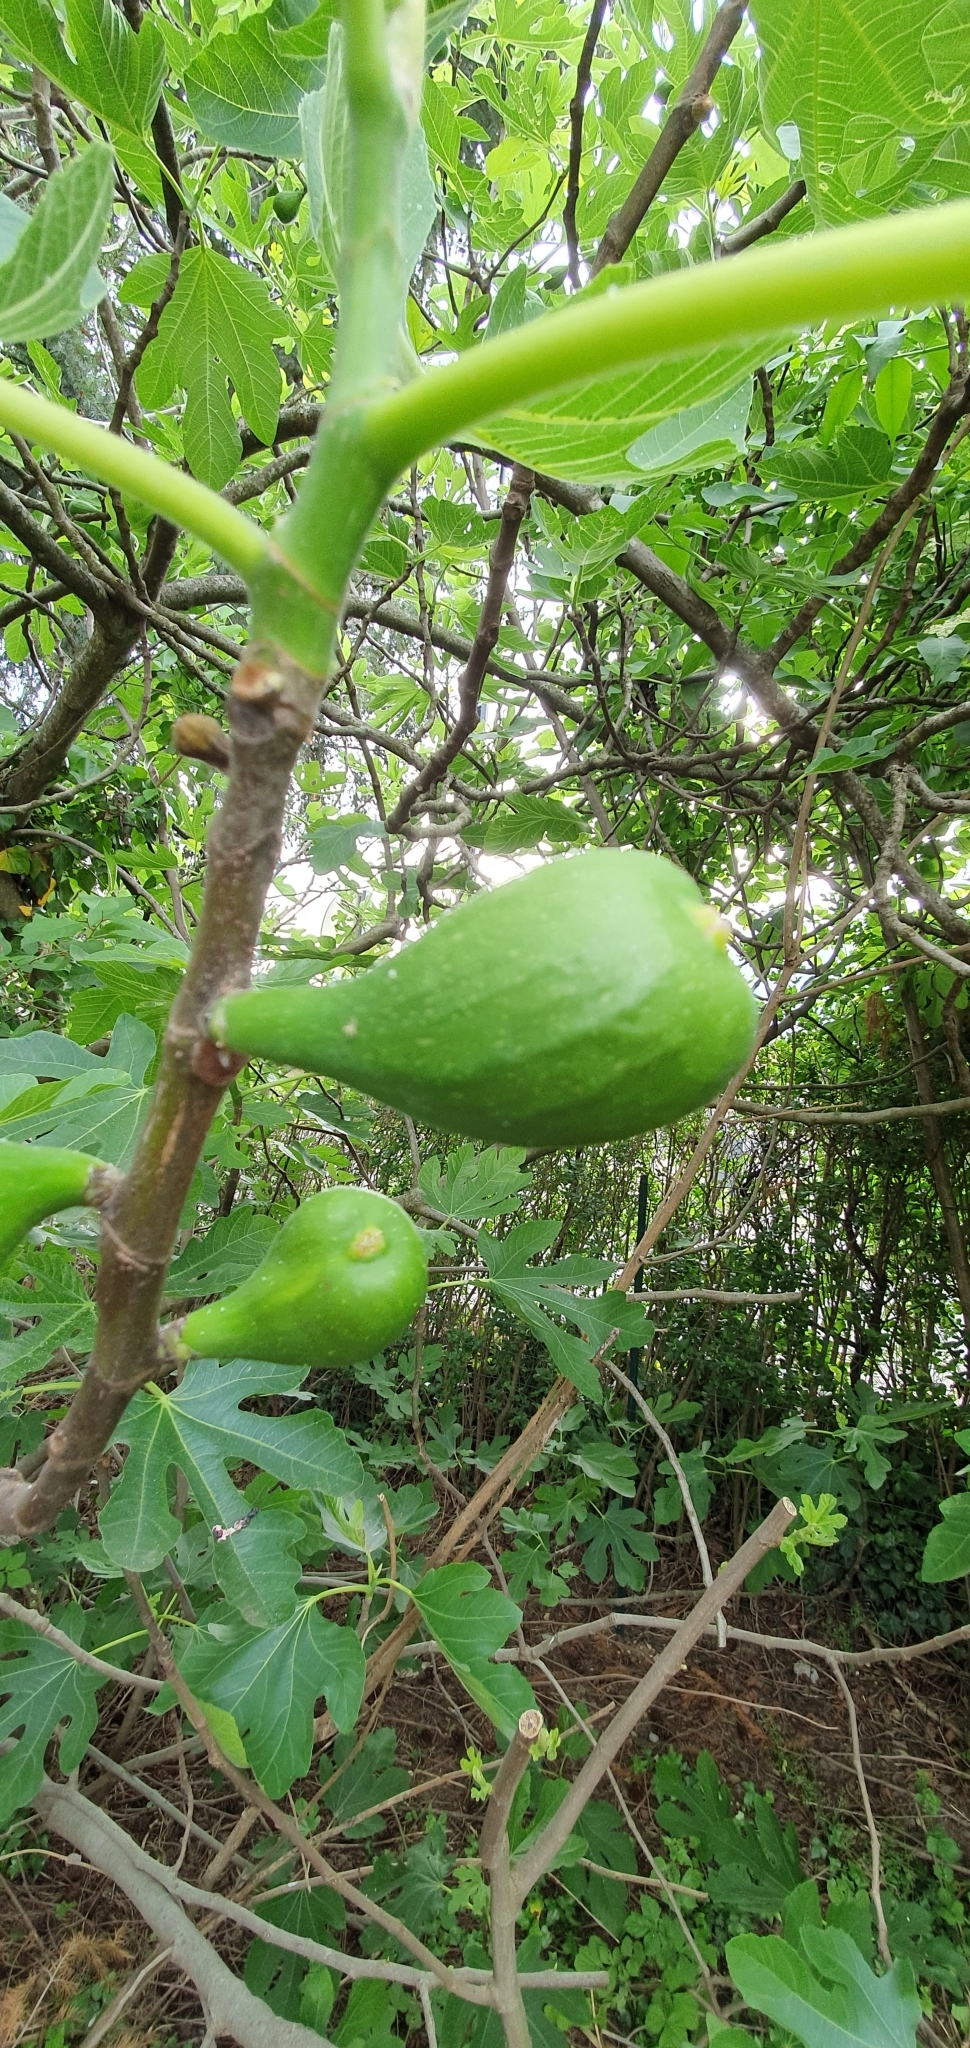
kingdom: Plantae
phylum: Tracheophyta
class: Magnoliopsida
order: Rosales
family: Moraceae
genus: Ficus
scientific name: Ficus carica
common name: Fig
